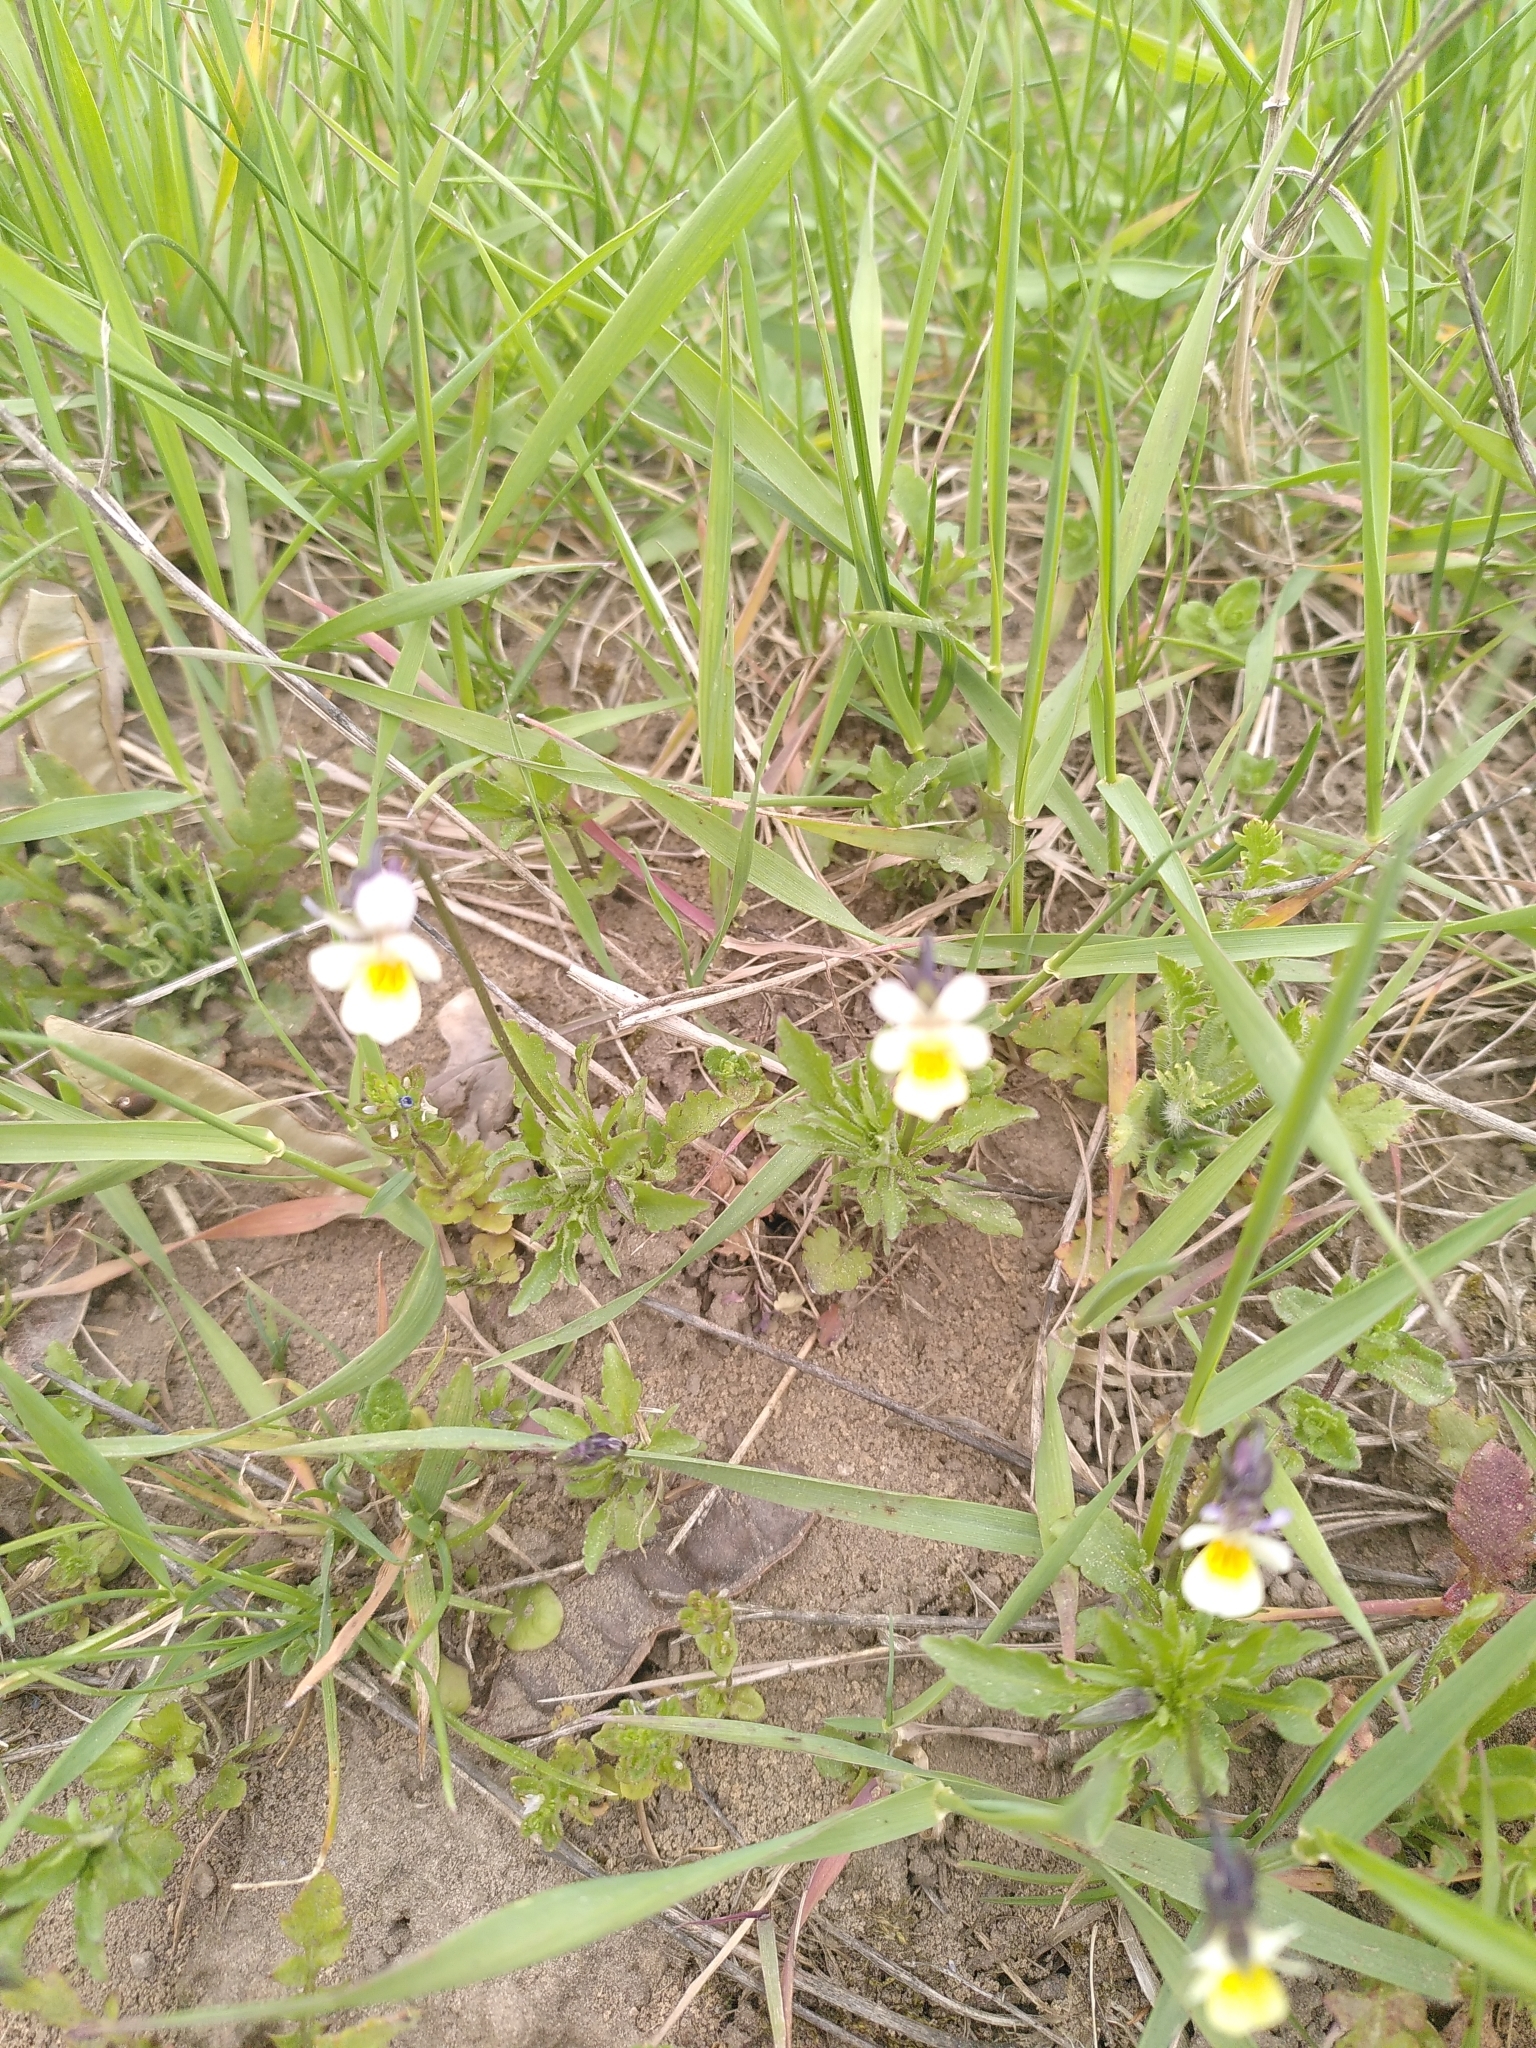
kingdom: Plantae
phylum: Tracheophyta
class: Magnoliopsida
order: Malpighiales
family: Violaceae
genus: Viola
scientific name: Viola arvensis
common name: Field pansy
